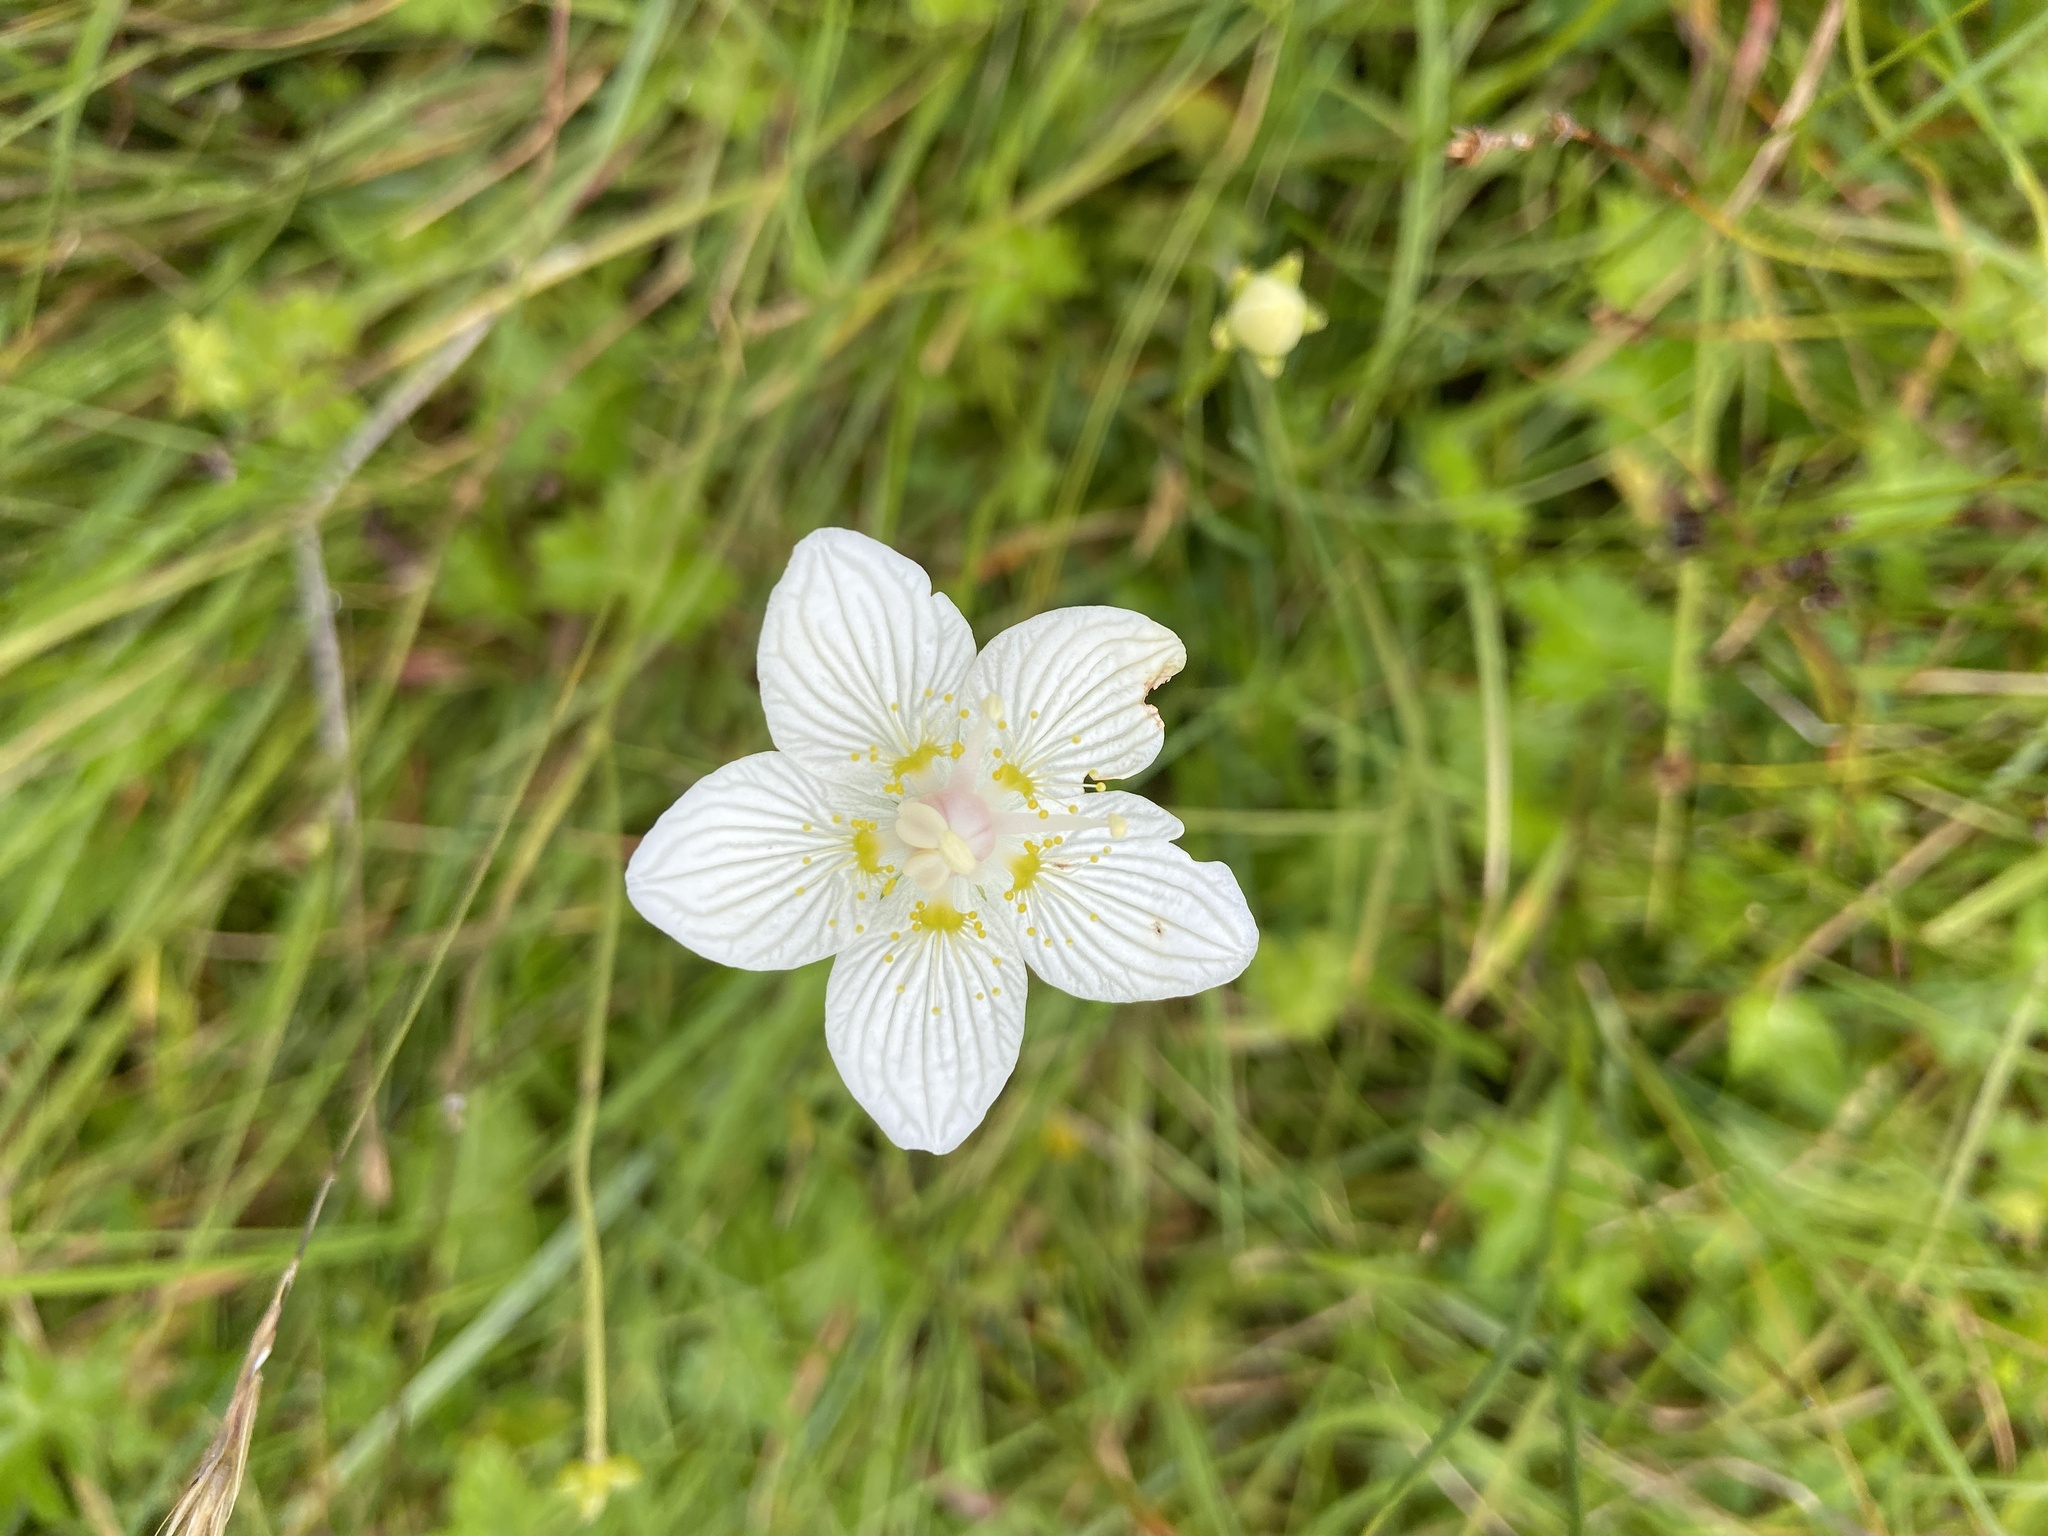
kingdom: Plantae
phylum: Tracheophyta
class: Magnoliopsida
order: Celastrales
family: Parnassiaceae
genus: Parnassia
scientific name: Parnassia palustris
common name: Grass-of-parnassus
